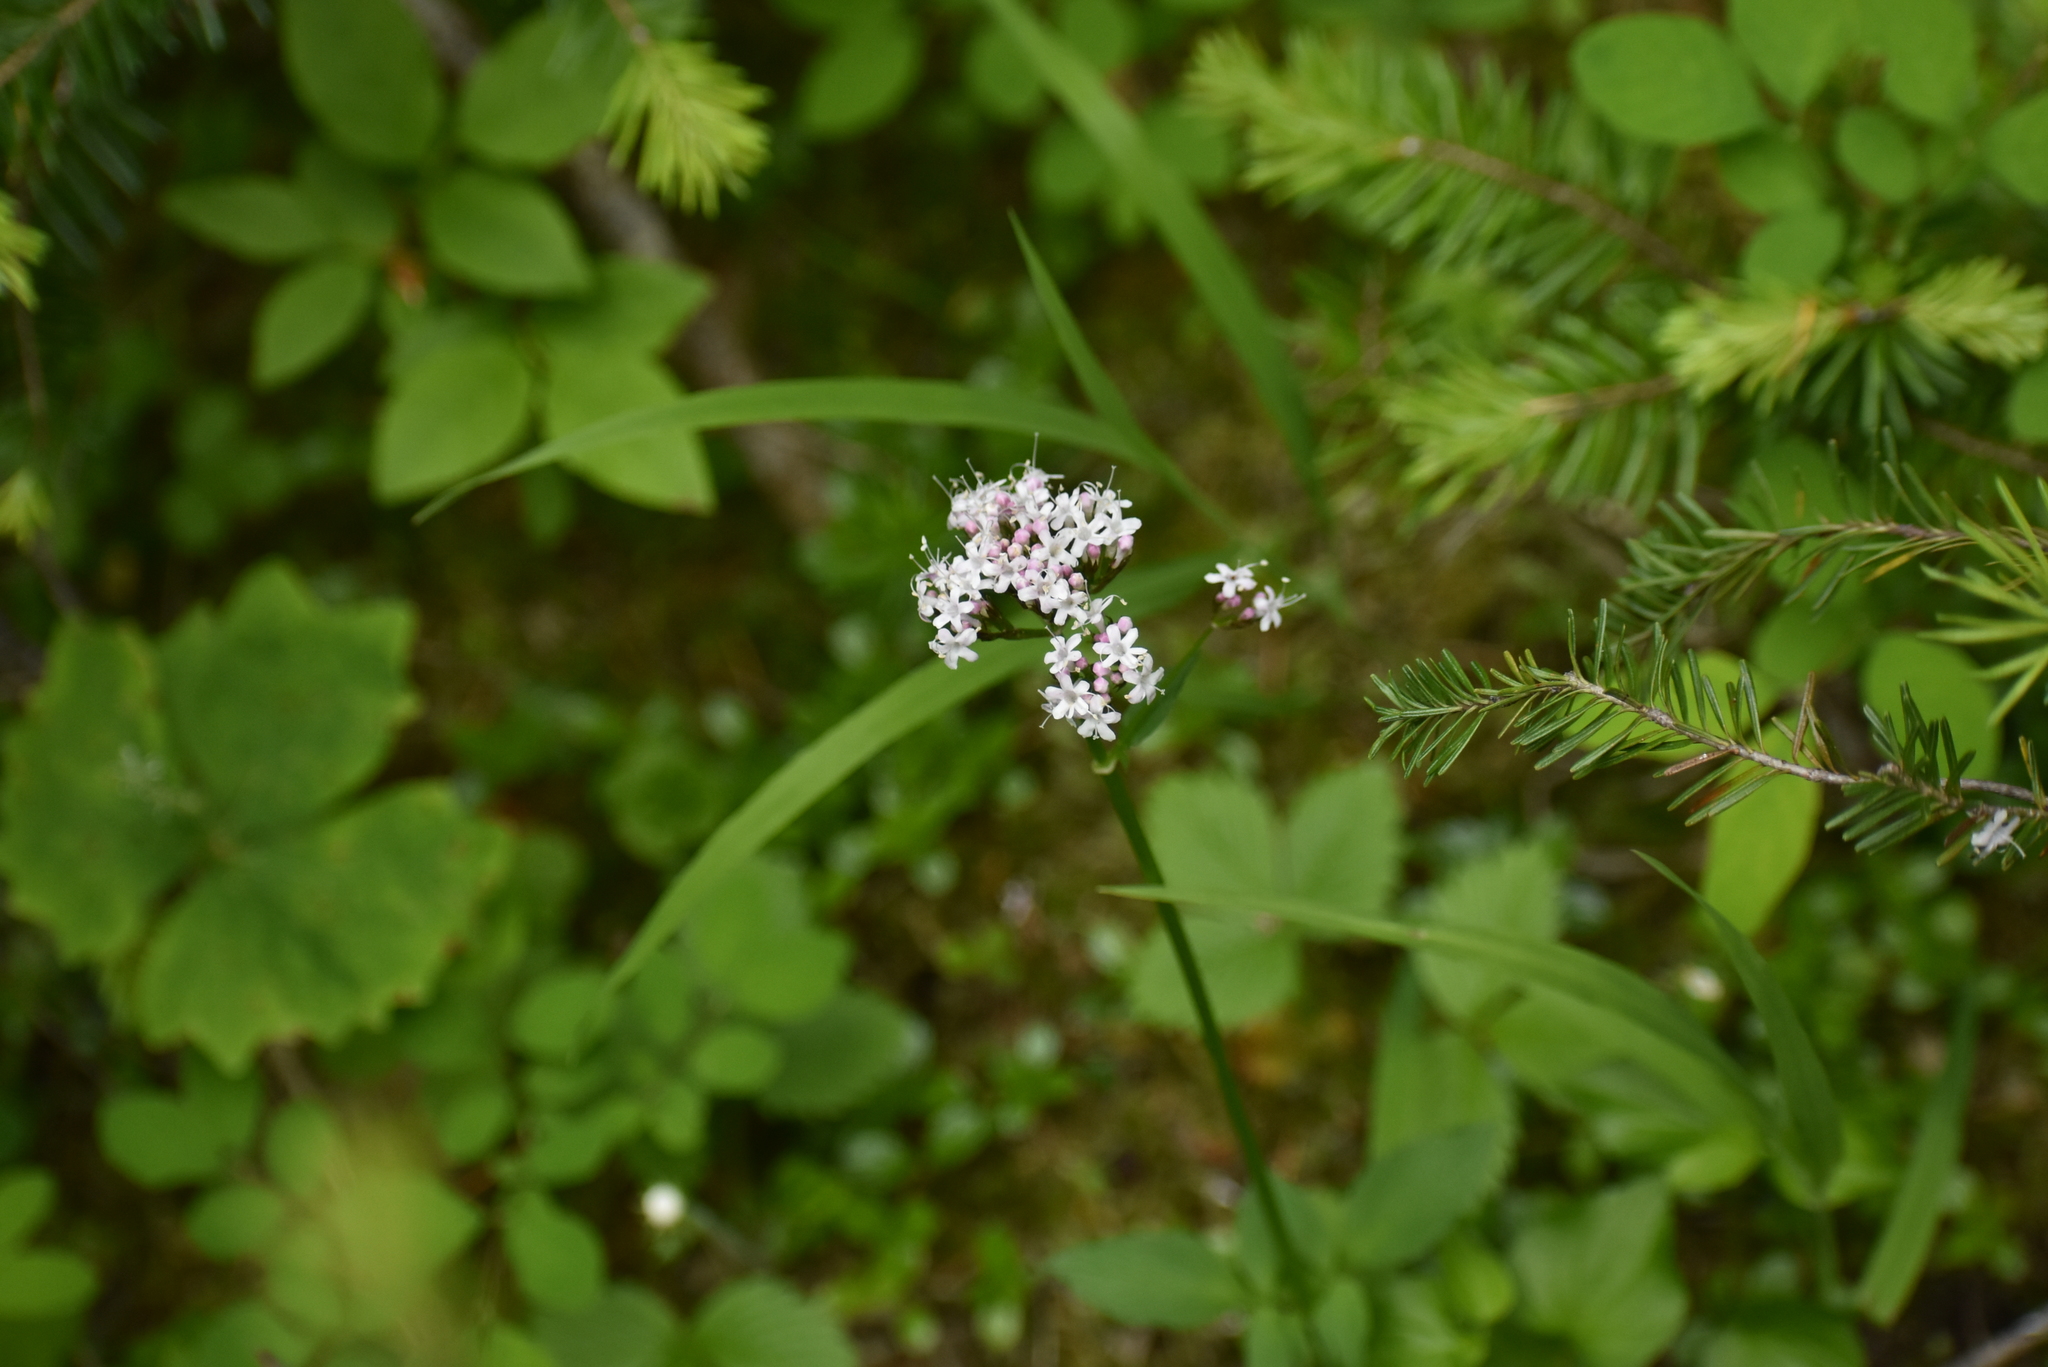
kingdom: Plantae
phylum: Tracheophyta
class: Magnoliopsida
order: Dipsacales
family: Caprifoliaceae
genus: Valeriana
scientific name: Valeriana sitchensis
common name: Pacific valerian
